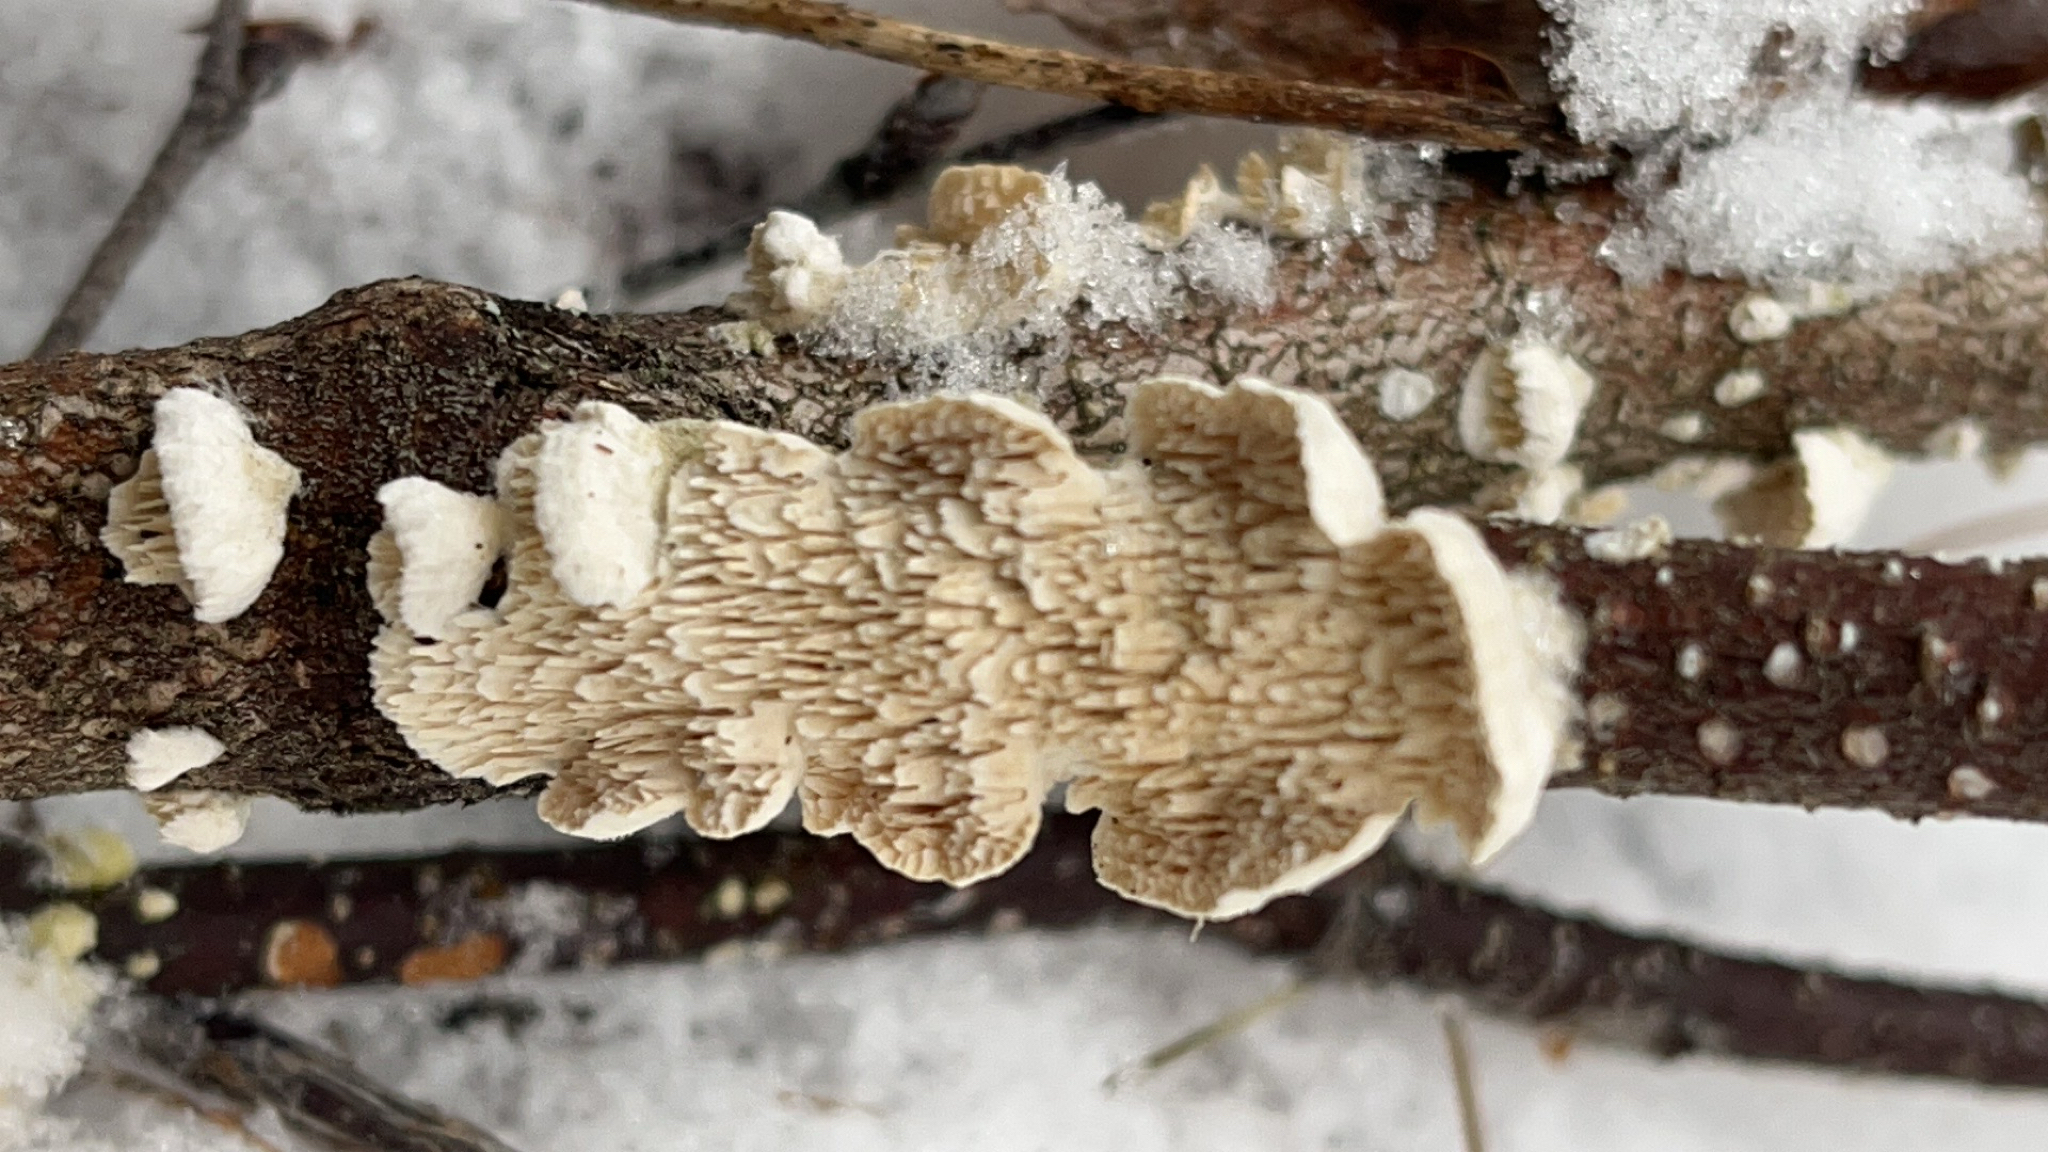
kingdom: Fungi
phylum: Basidiomycota
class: Agaricomycetes
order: Polyporales
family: Irpicaceae
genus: Irpex
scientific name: Irpex lacteus
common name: Milk-white toothed polypore
